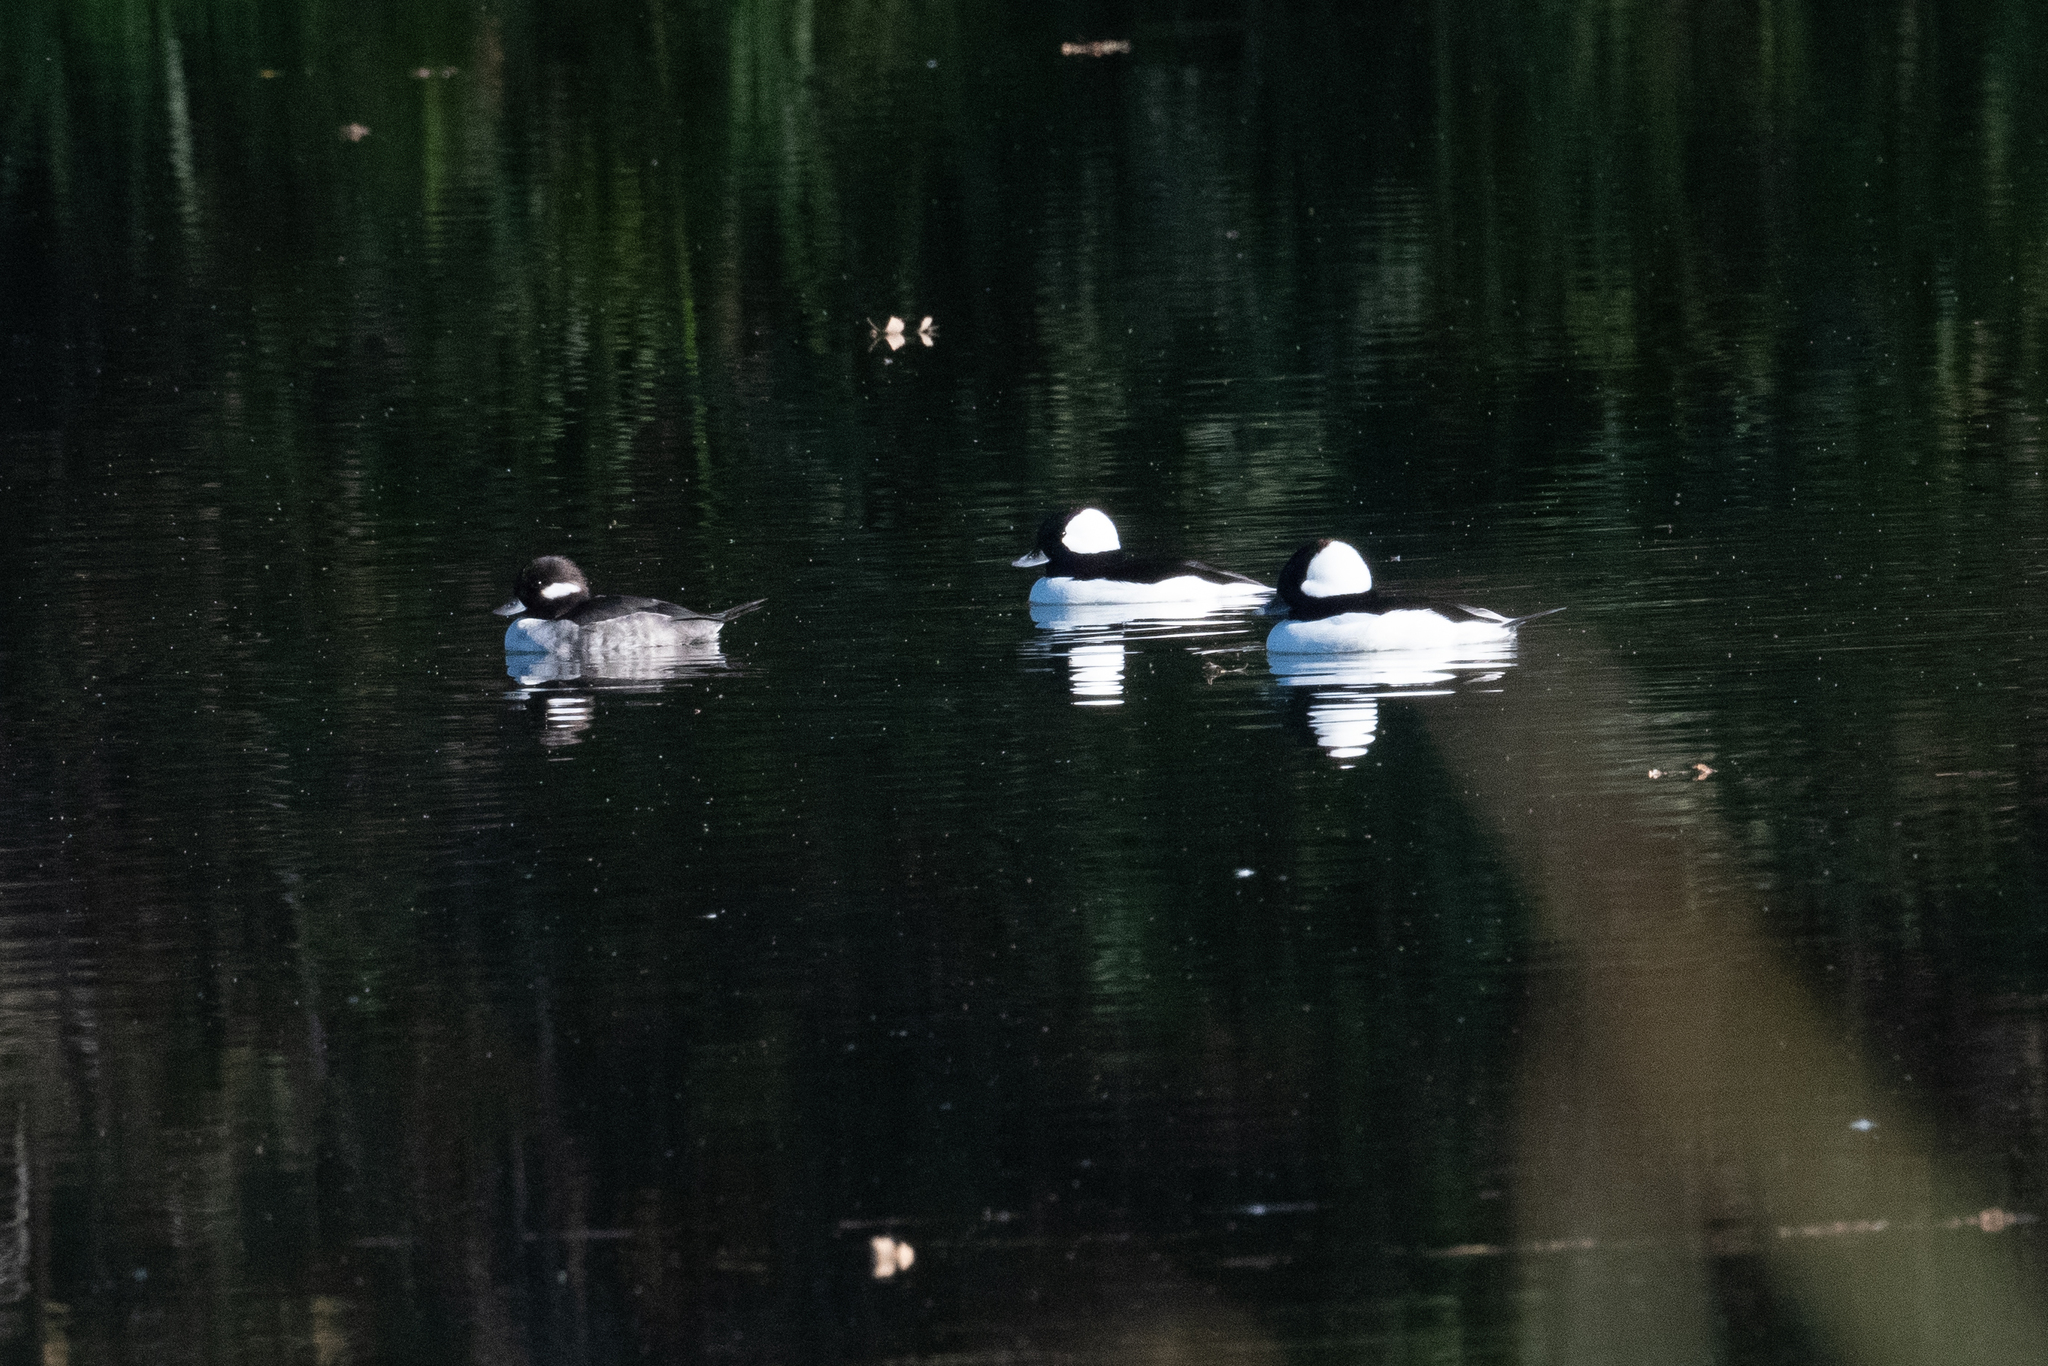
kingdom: Animalia
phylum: Chordata
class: Aves
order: Anseriformes
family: Anatidae
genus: Bucephala
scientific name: Bucephala albeola
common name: Bufflehead
